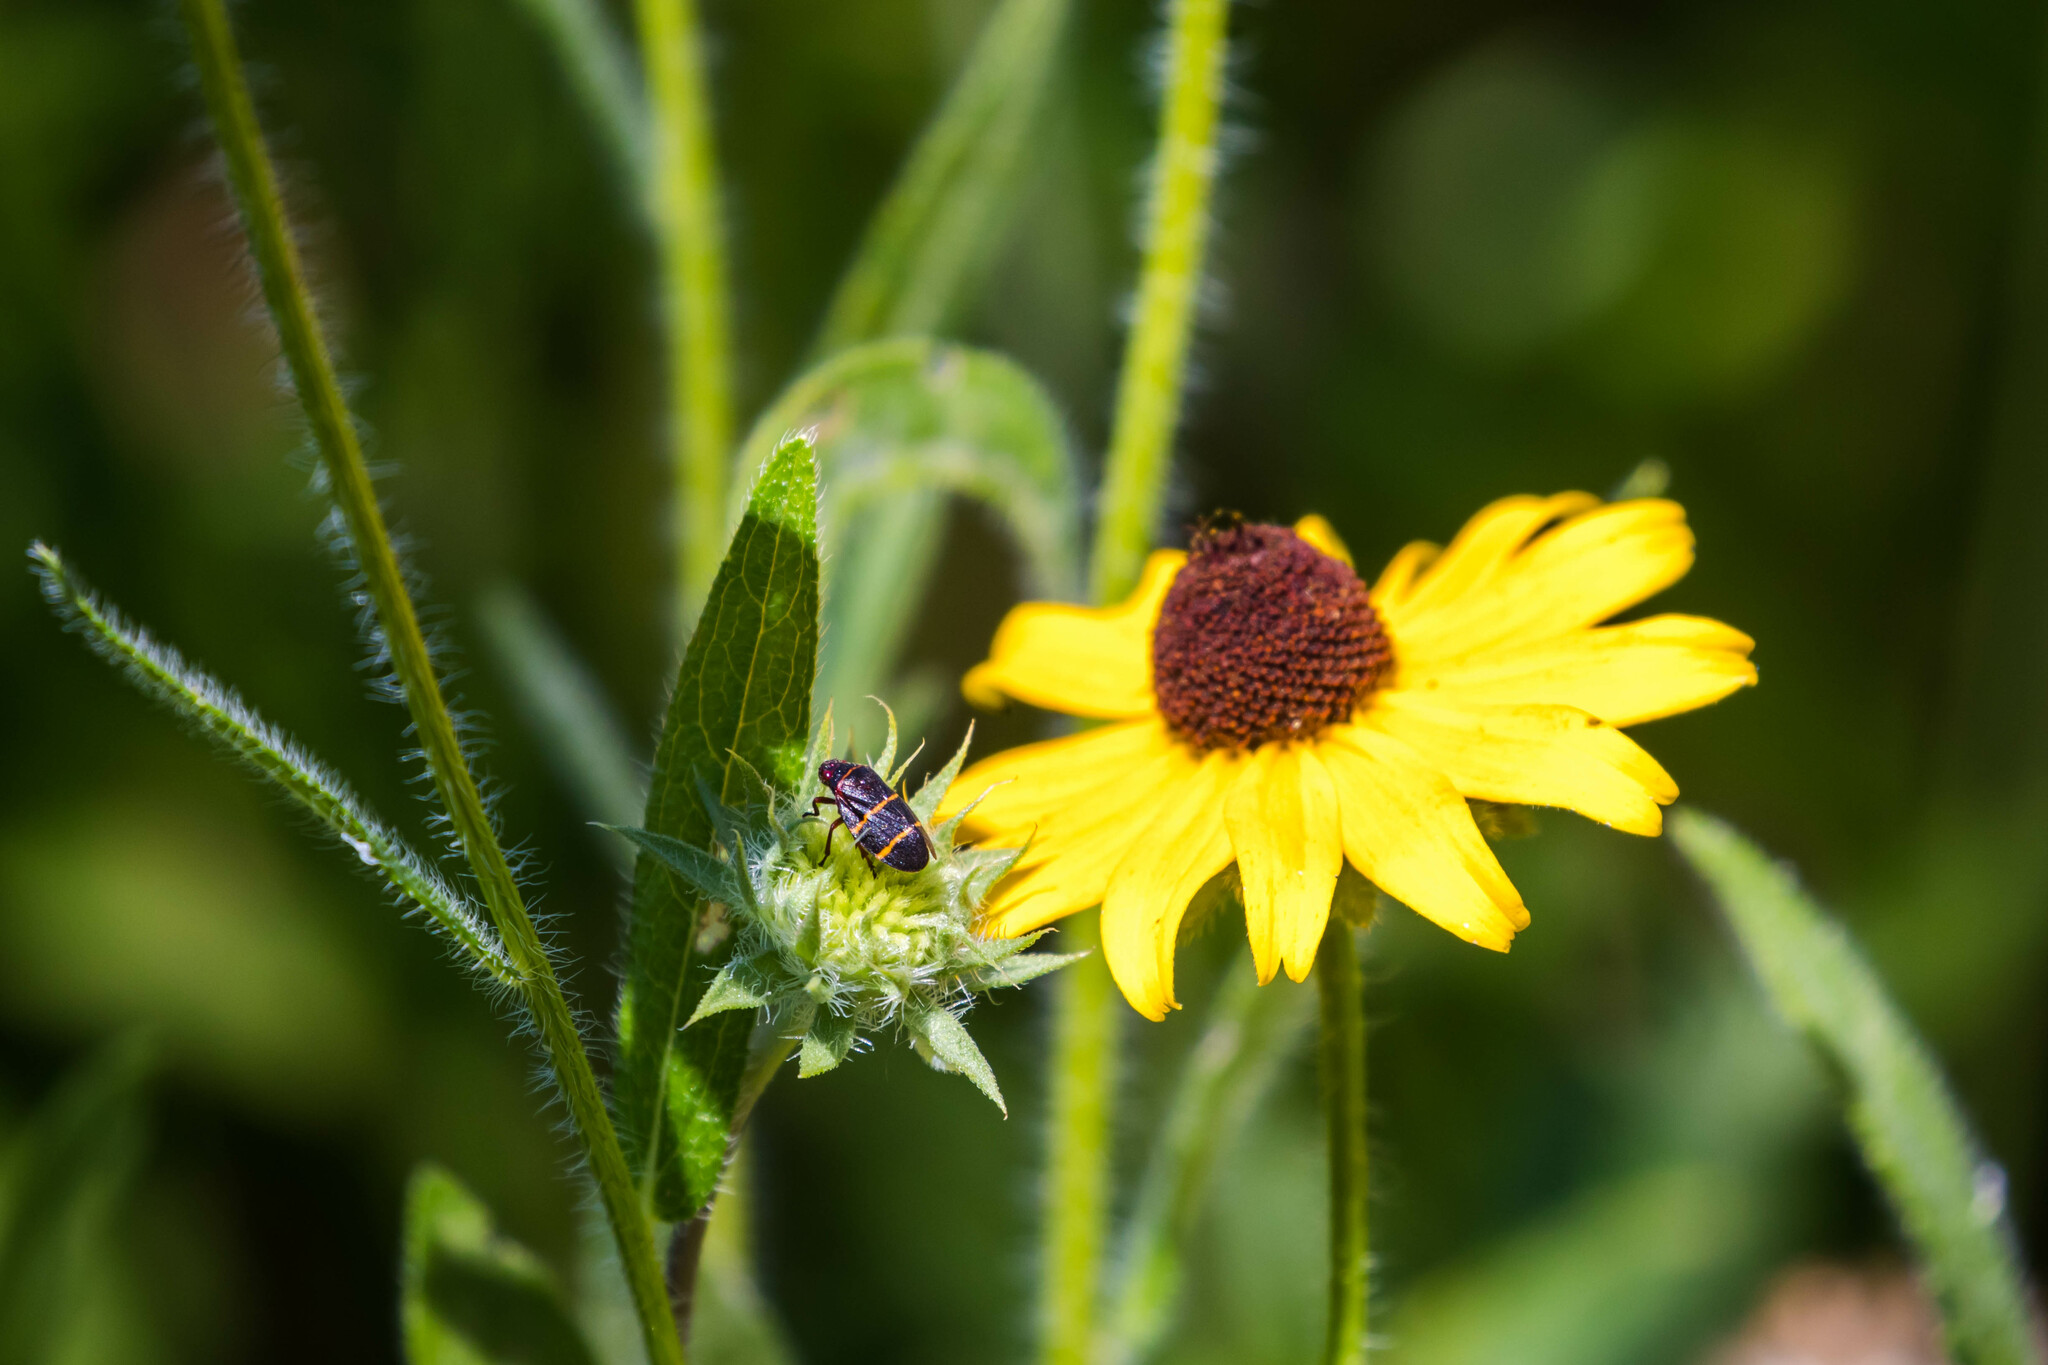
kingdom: Animalia
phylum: Arthropoda
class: Insecta
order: Hemiptera
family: Cercopidae
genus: Prosapia
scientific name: Prosapia bicincta
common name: Twolined spittlebug
